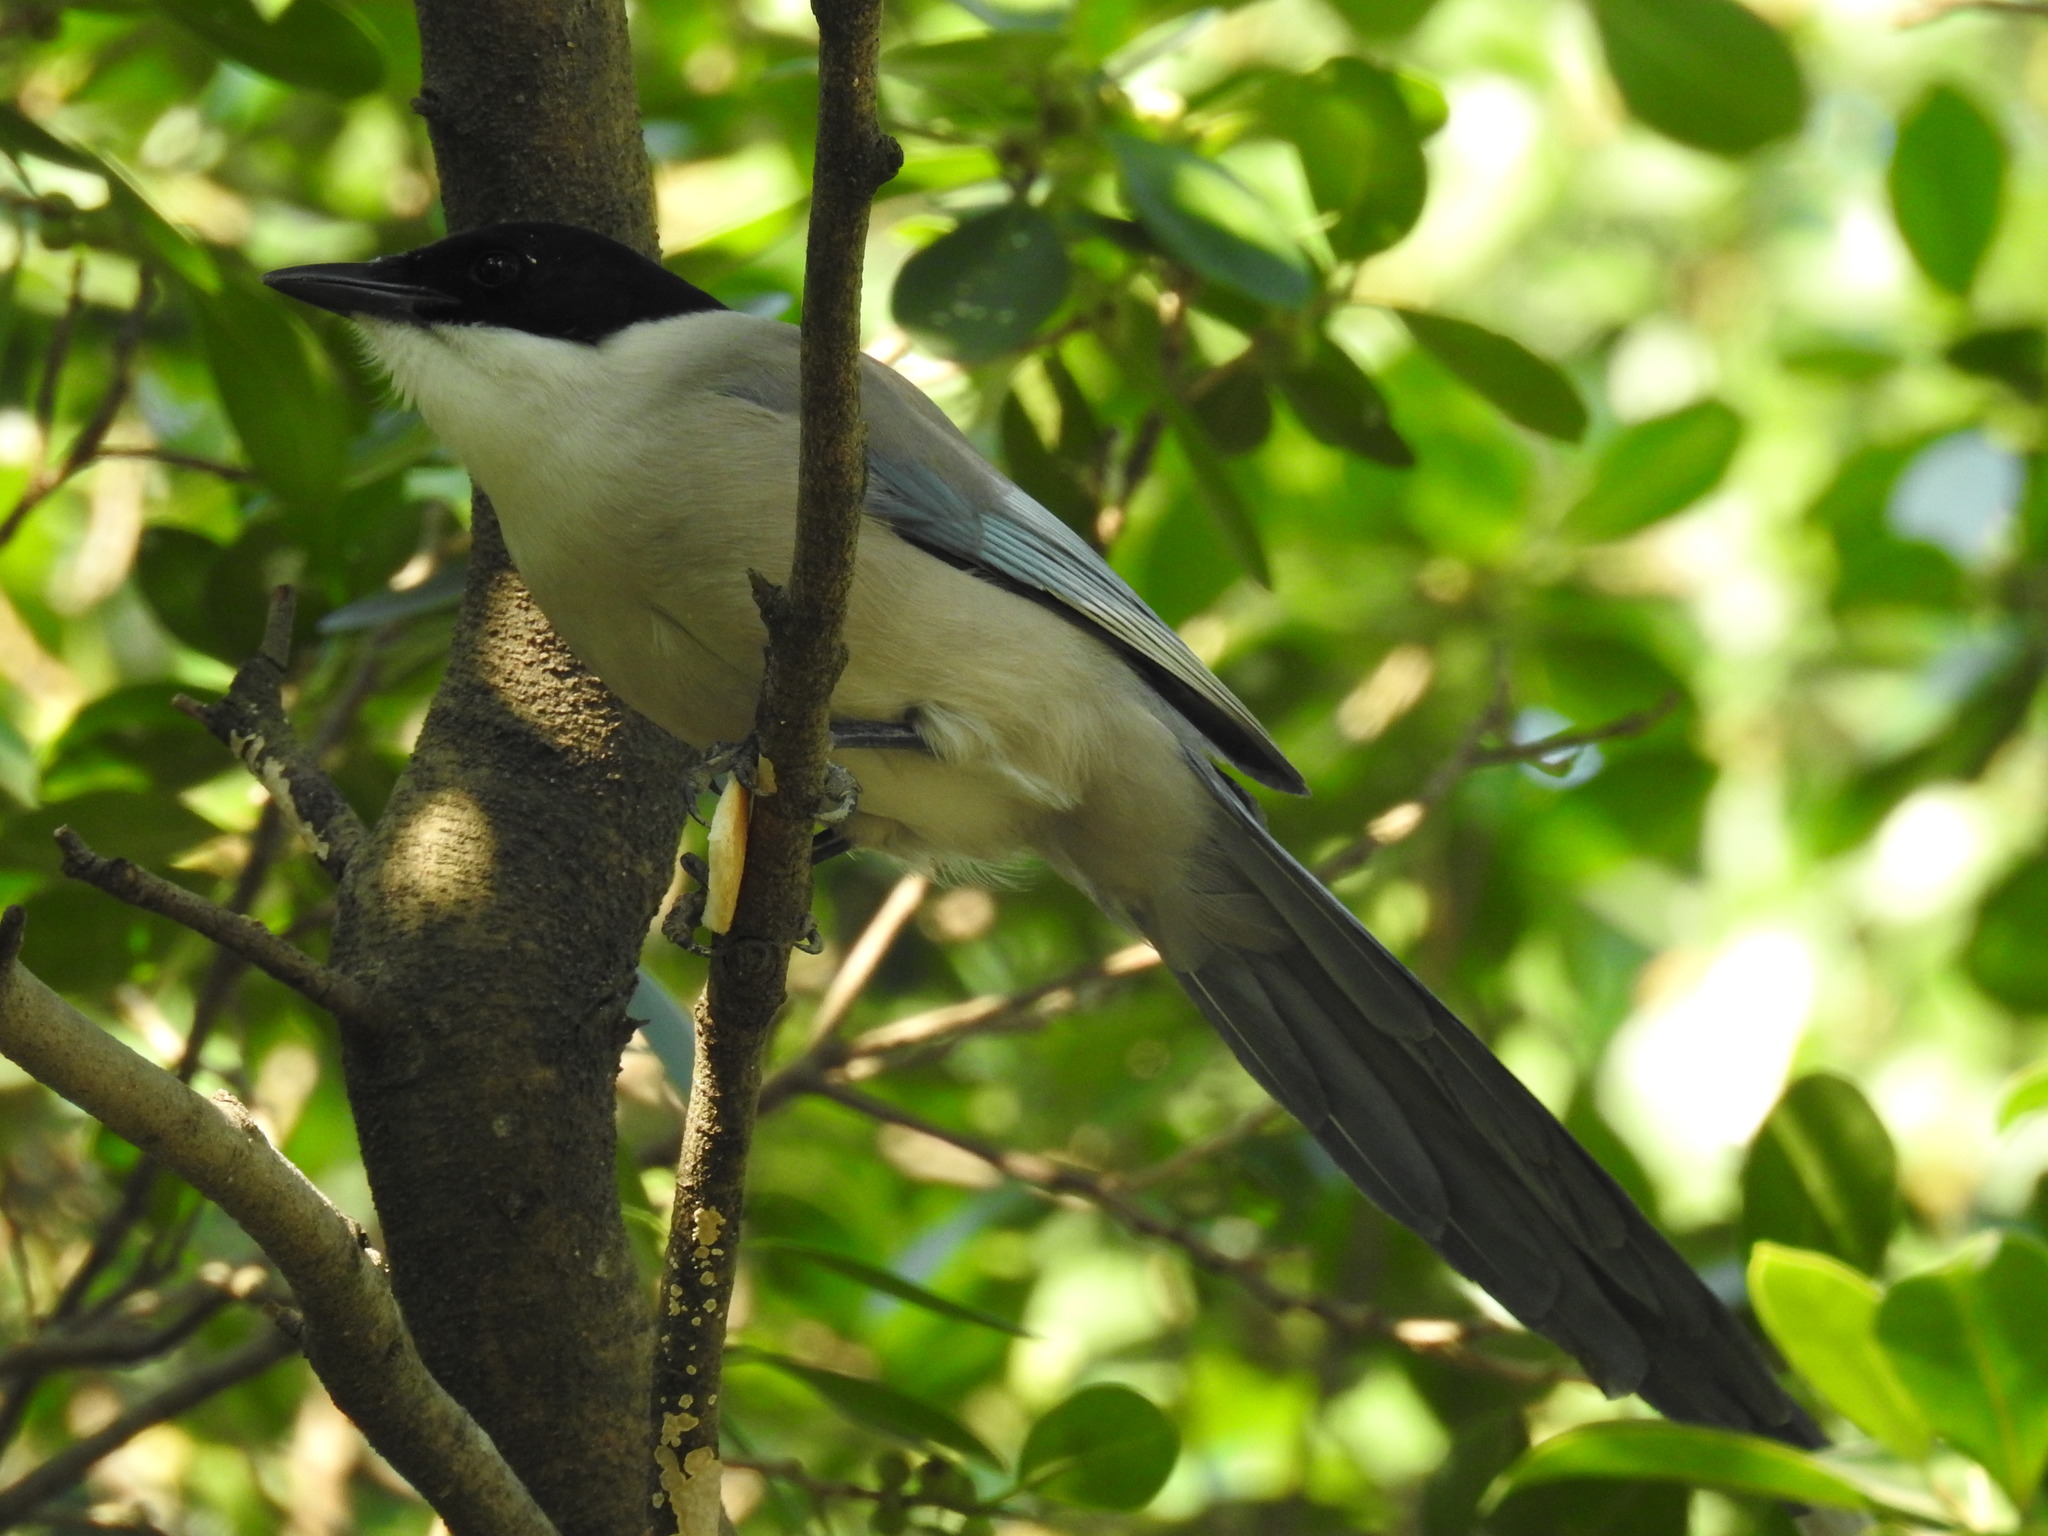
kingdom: Animalia
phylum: Chordata
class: Aves
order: Passeriformes
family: Corvidae
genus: Cyanopica
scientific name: Cyanopica cyanus
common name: Azure-winged magpie
